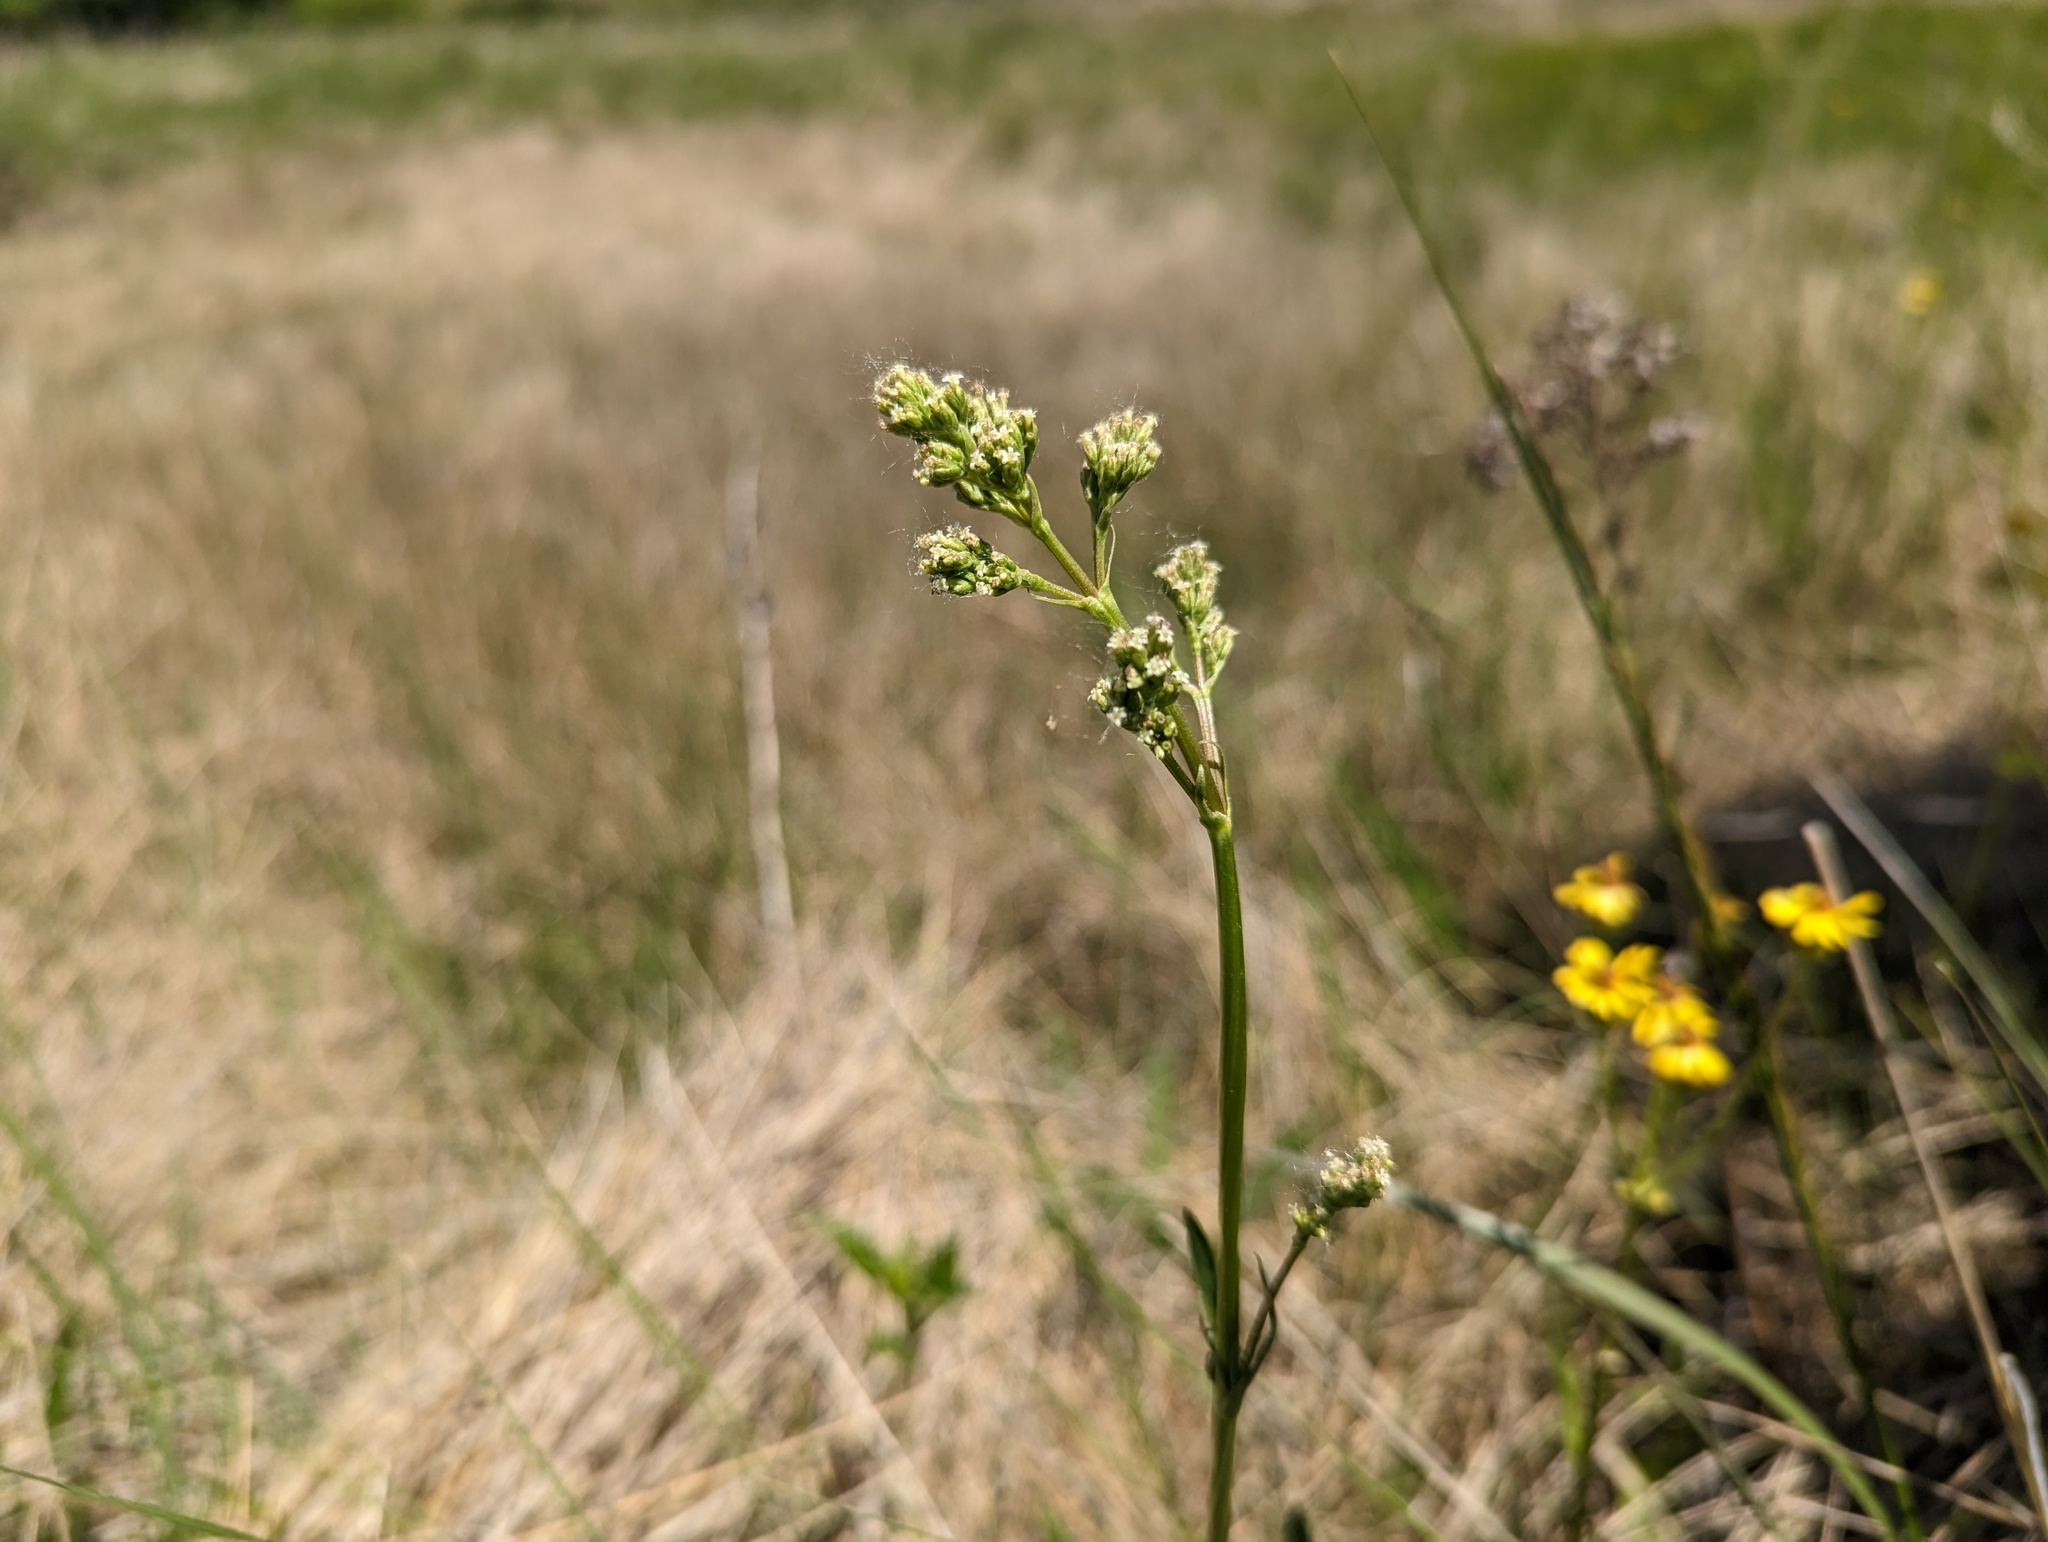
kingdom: Plantae
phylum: Tracheophyta
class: Magnoliopsida
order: Dipsacales
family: Caprifoliaceae
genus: Valeriana
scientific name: Valeriana edulis
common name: Taproot valerian
